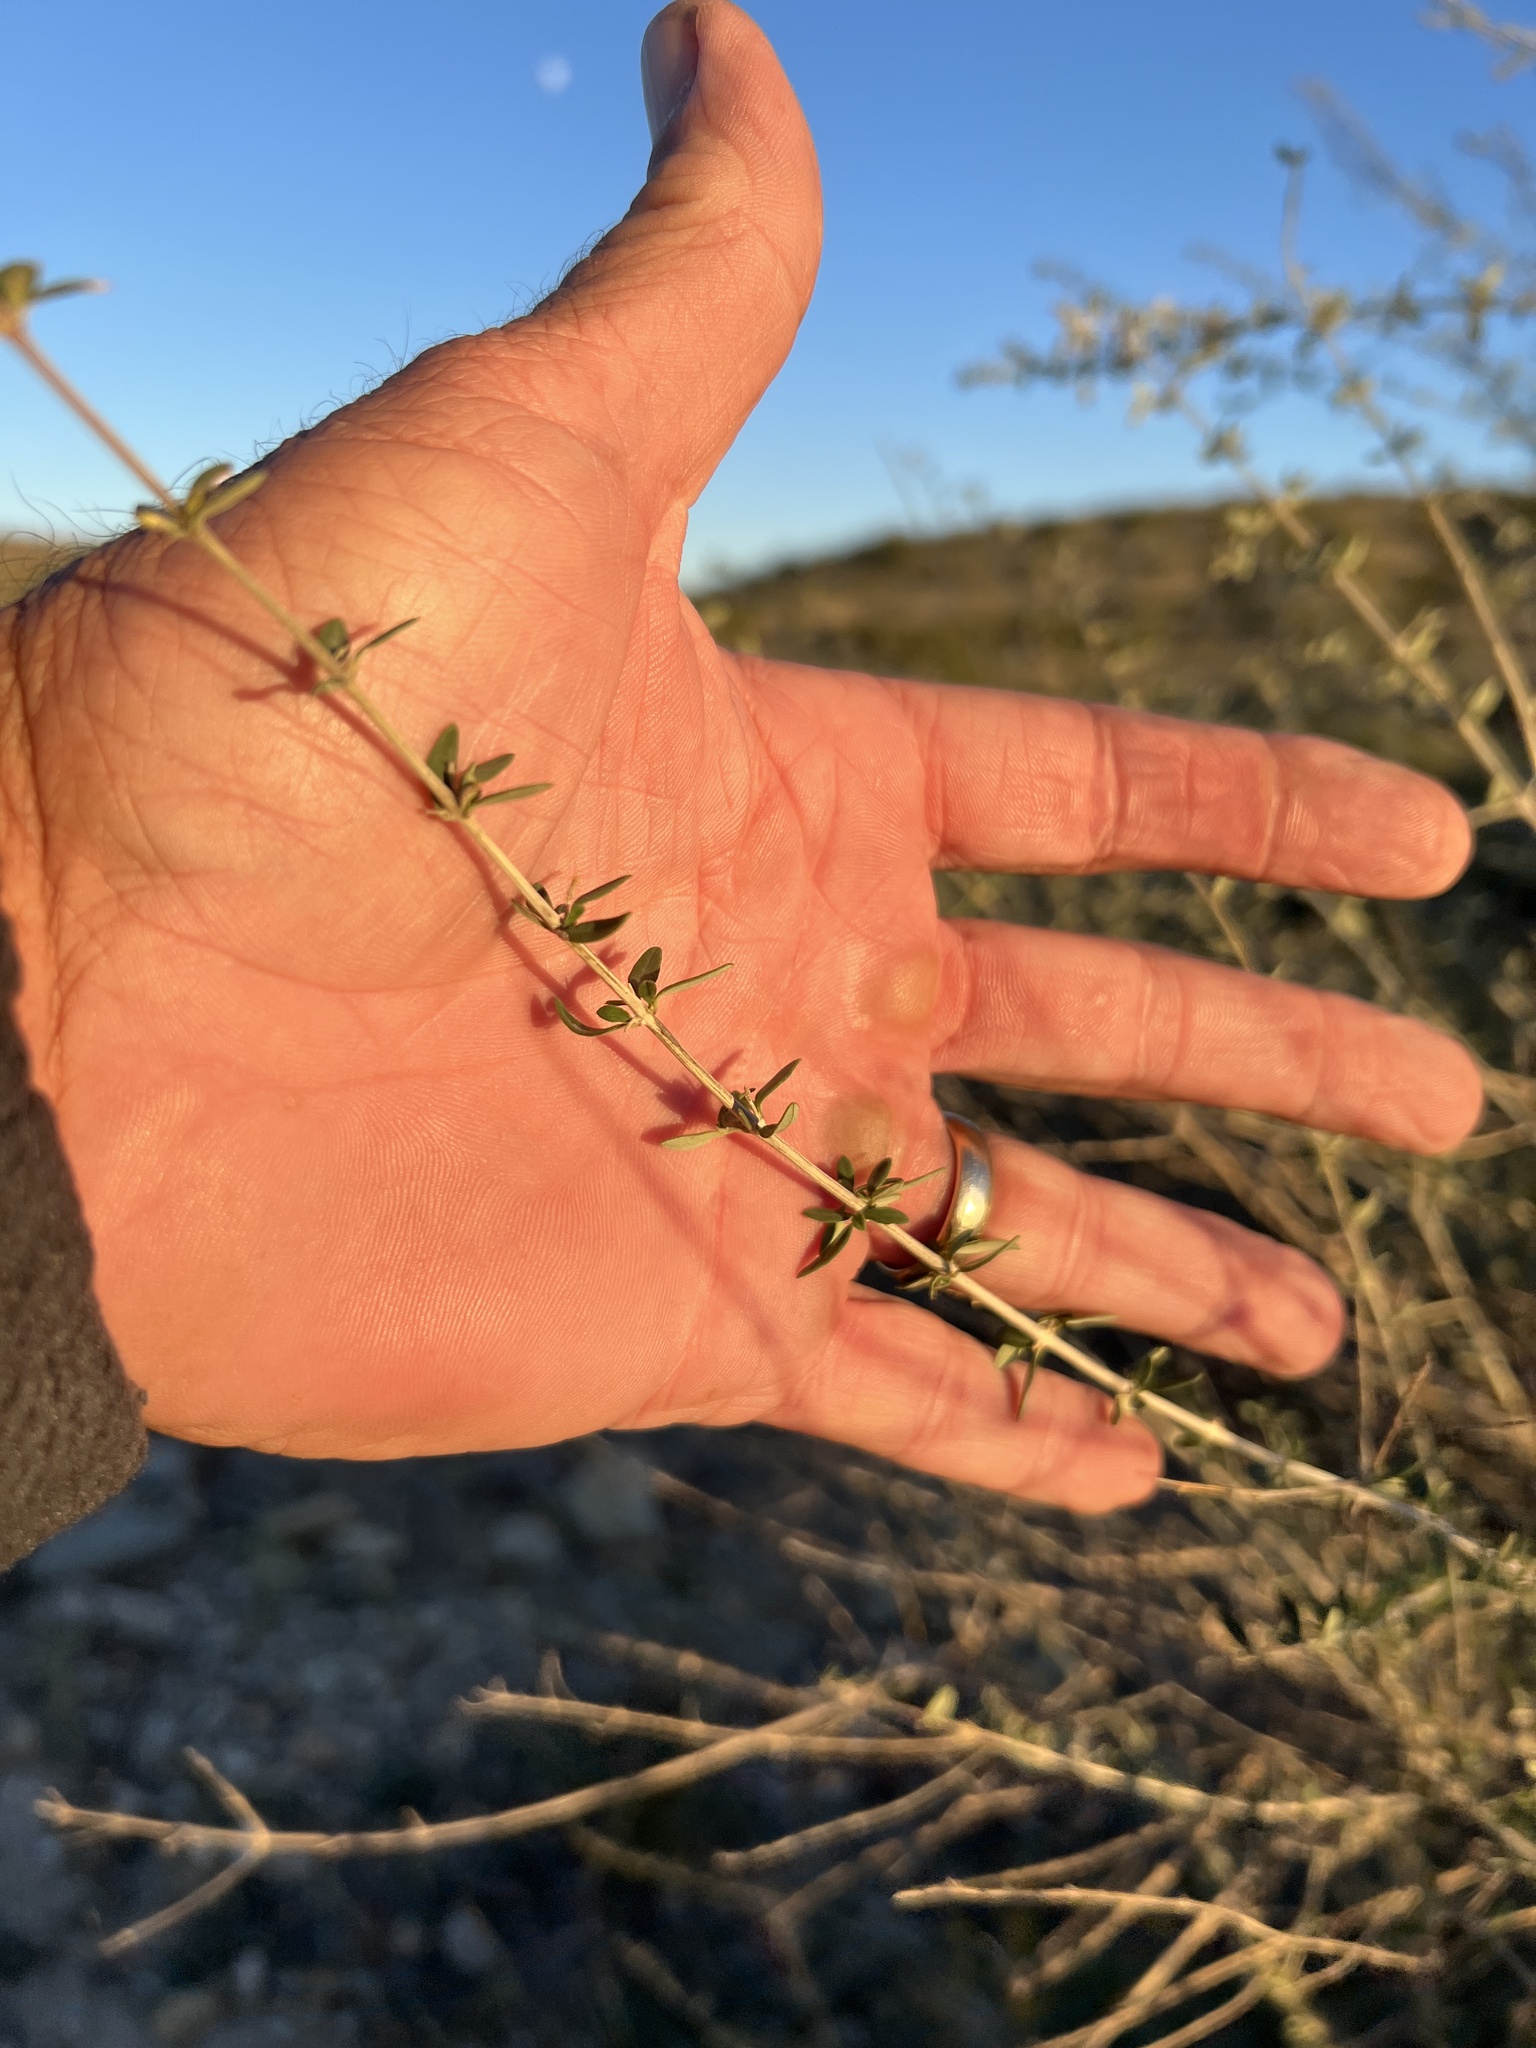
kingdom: Plantae
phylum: Tracheophyta
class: Magnoliopsida
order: Lamiales
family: Verbenaceae
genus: Aloysia
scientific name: Aloysia gratissima
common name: Common bee-brush
